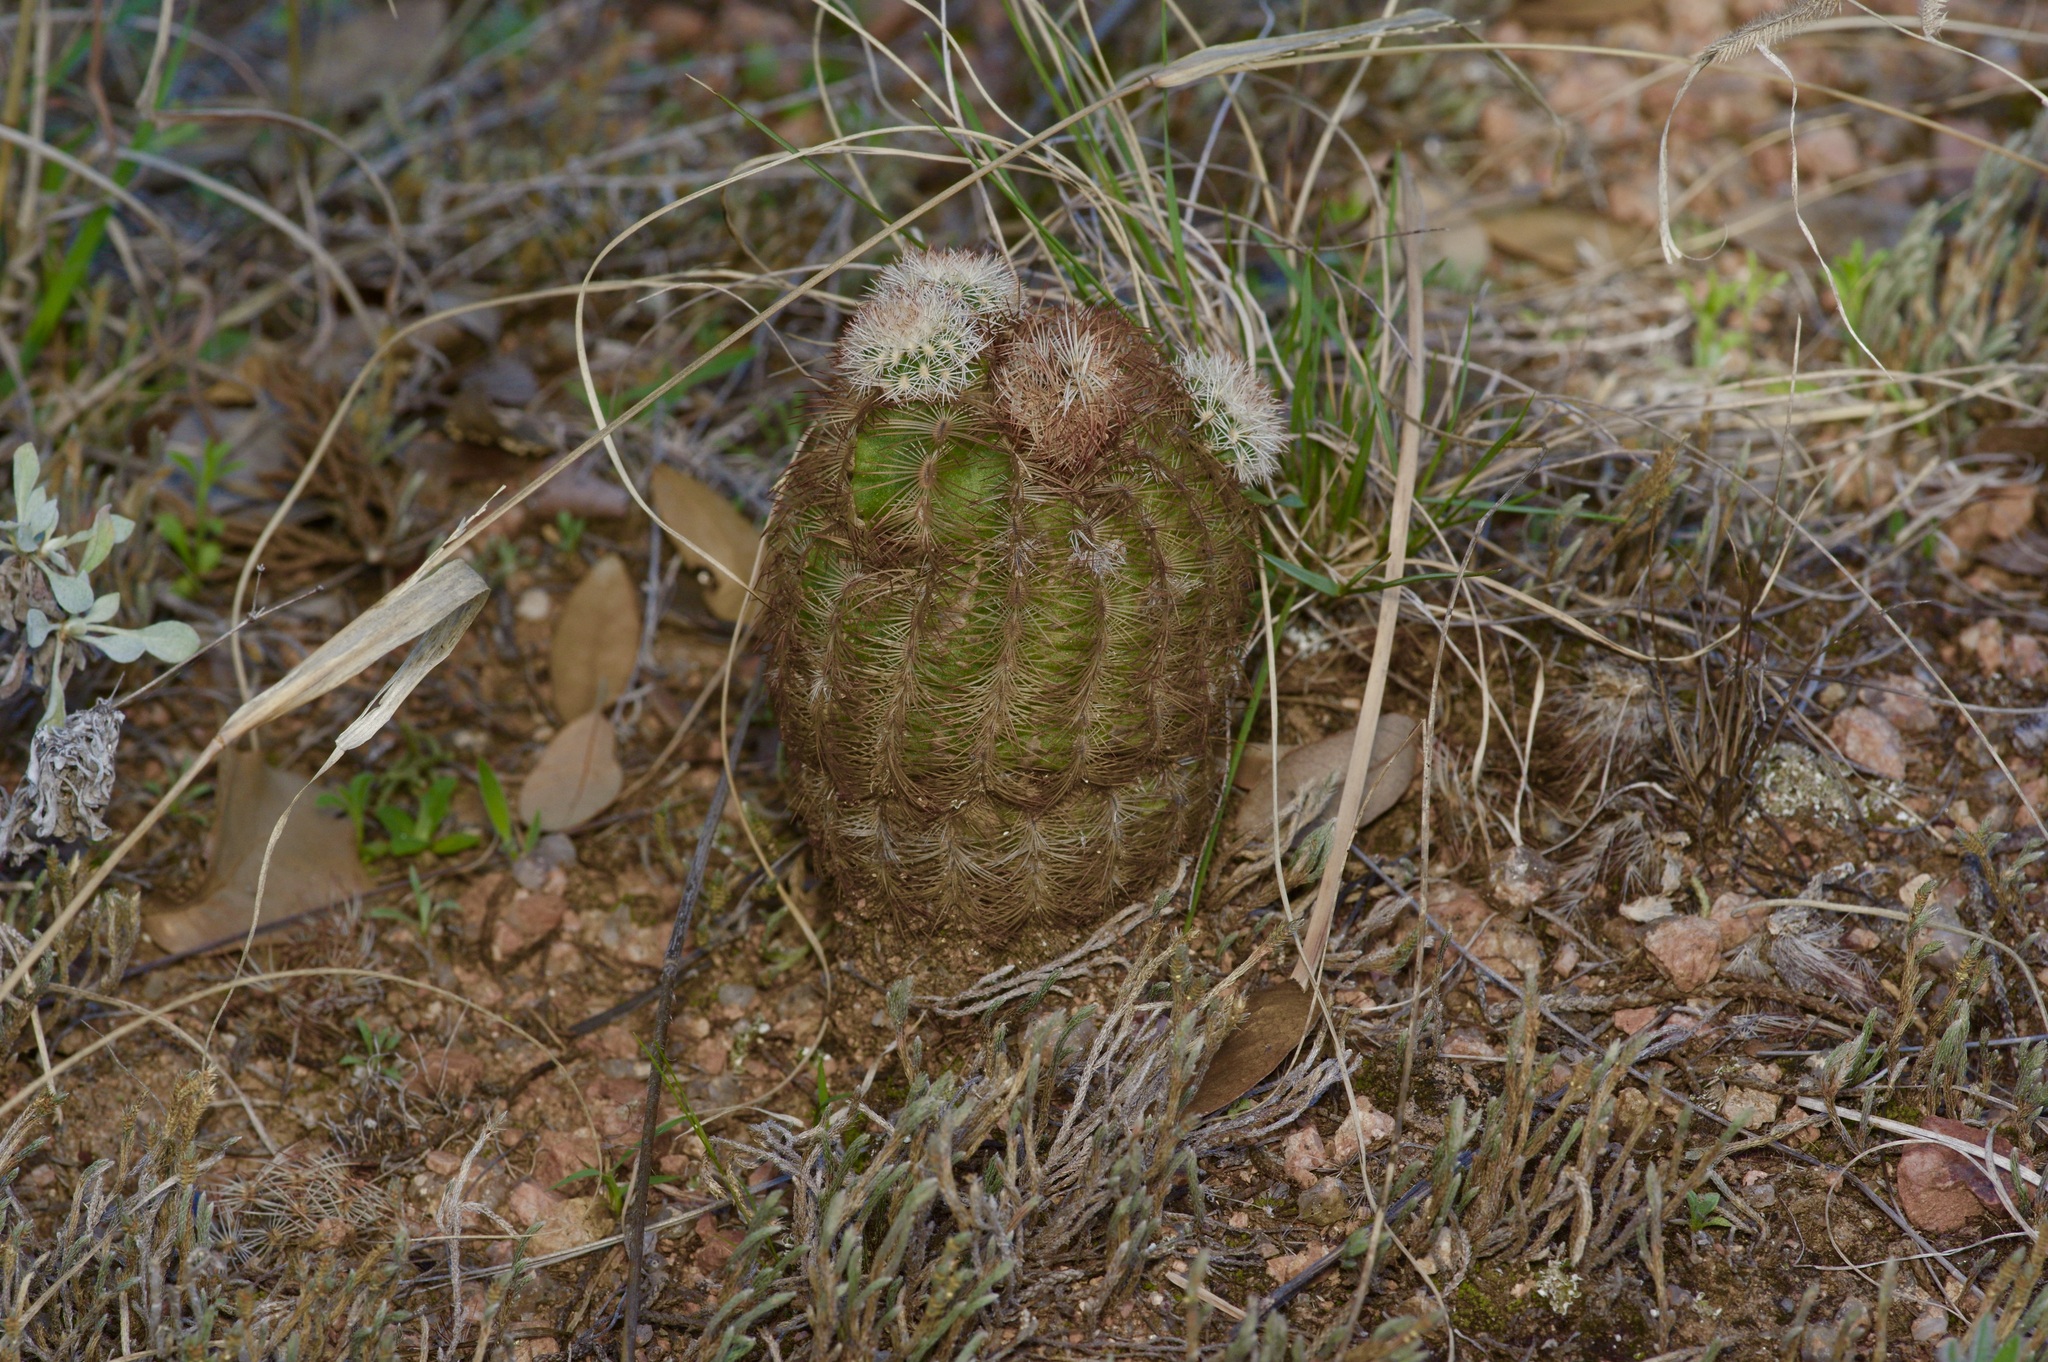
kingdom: Plantae
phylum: Tracheophyta
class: Magnoliopsida
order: Caryophyllales
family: Cactaceae
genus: Echinocereus
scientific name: Echinocereus reichenbachii
